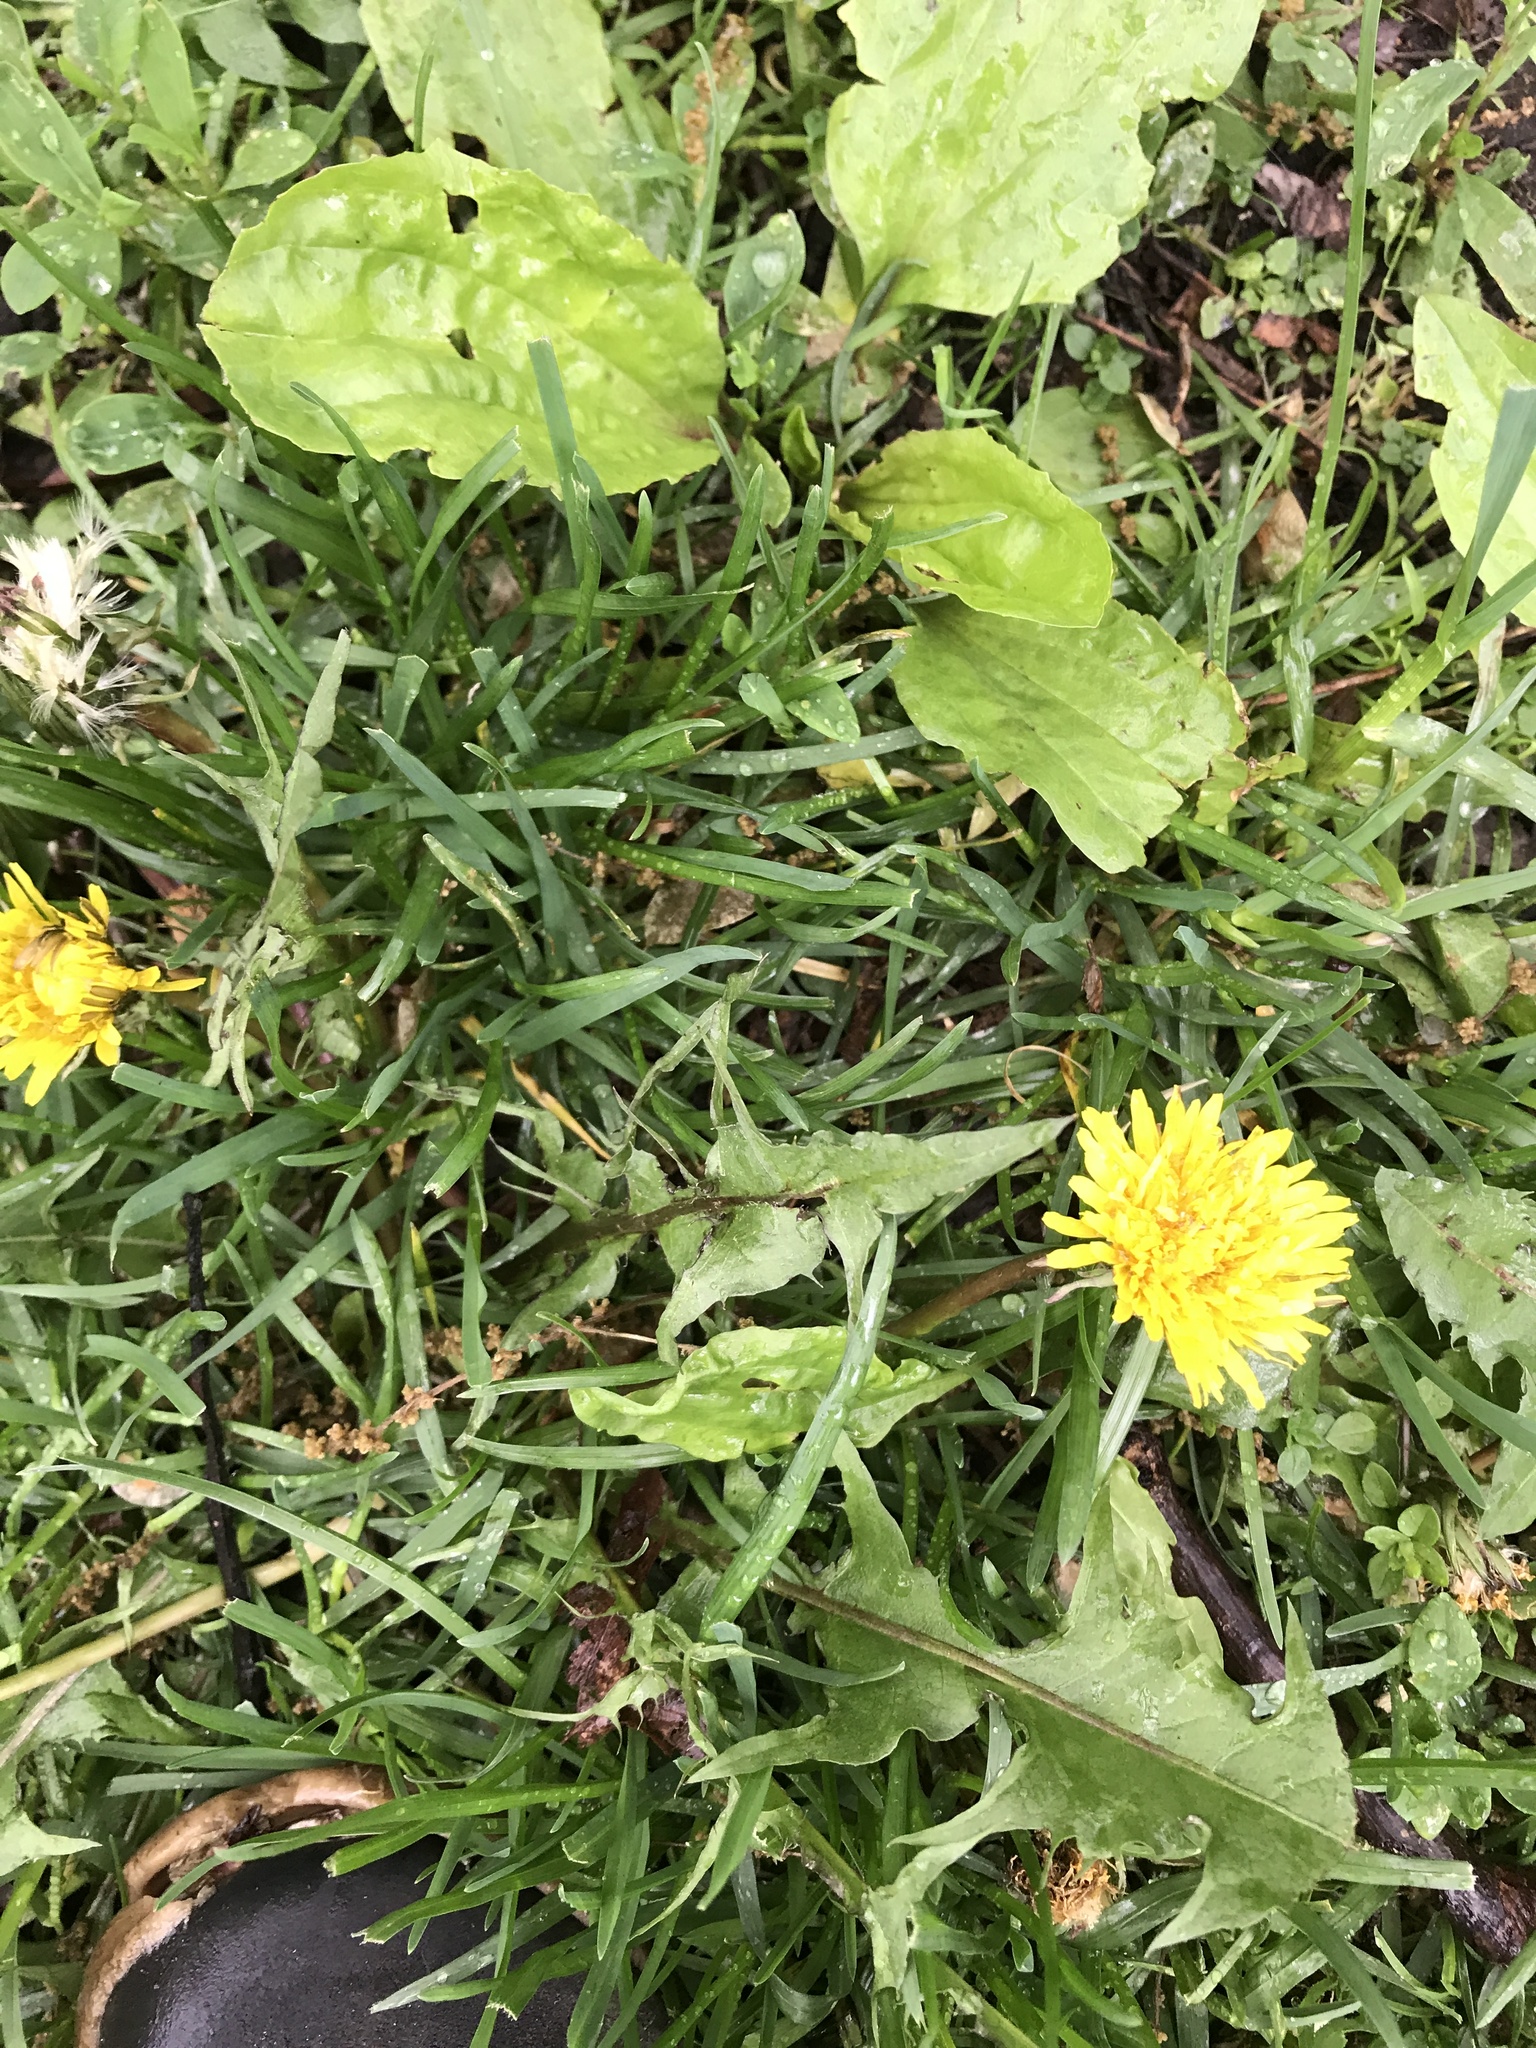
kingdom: Plantae
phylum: Tracheophyta
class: Magnoliopsida
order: Asterales
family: Asteraceae
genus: Taraxacum
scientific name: Taraxacum officinale
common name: Common dandelion
